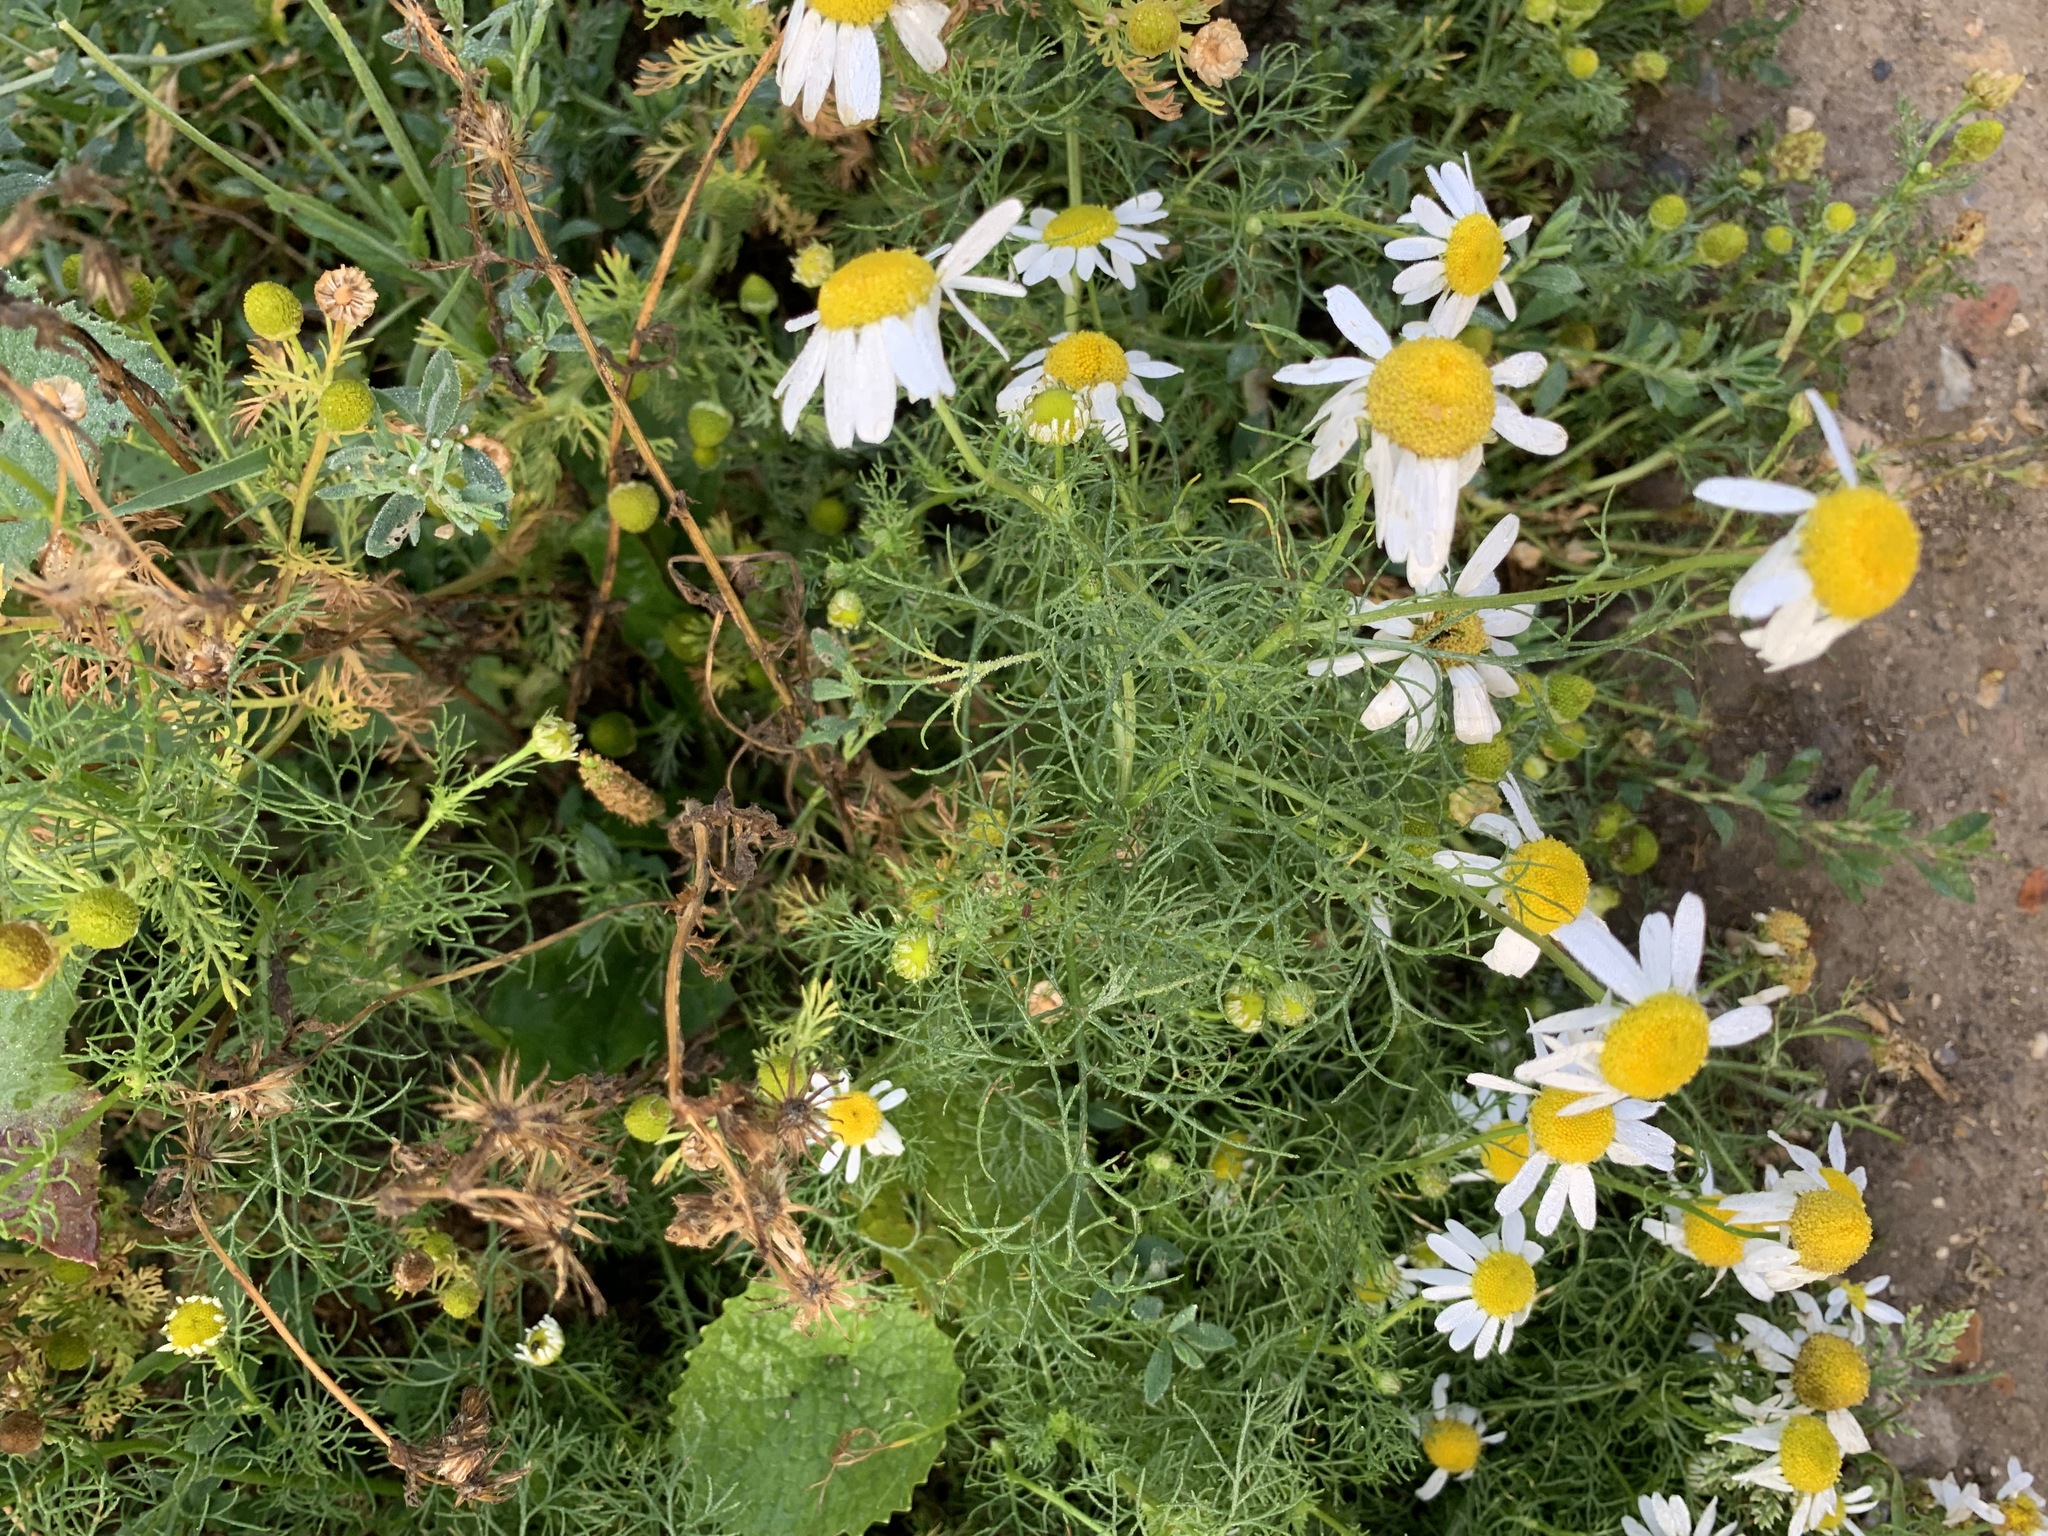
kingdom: Plantae
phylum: Tracheophyta
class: Magnoliopsida
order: Asterales
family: Asteraceae
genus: Tripleurospermum
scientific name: Tripleurospermum inodorum
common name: Scentless mayweed
